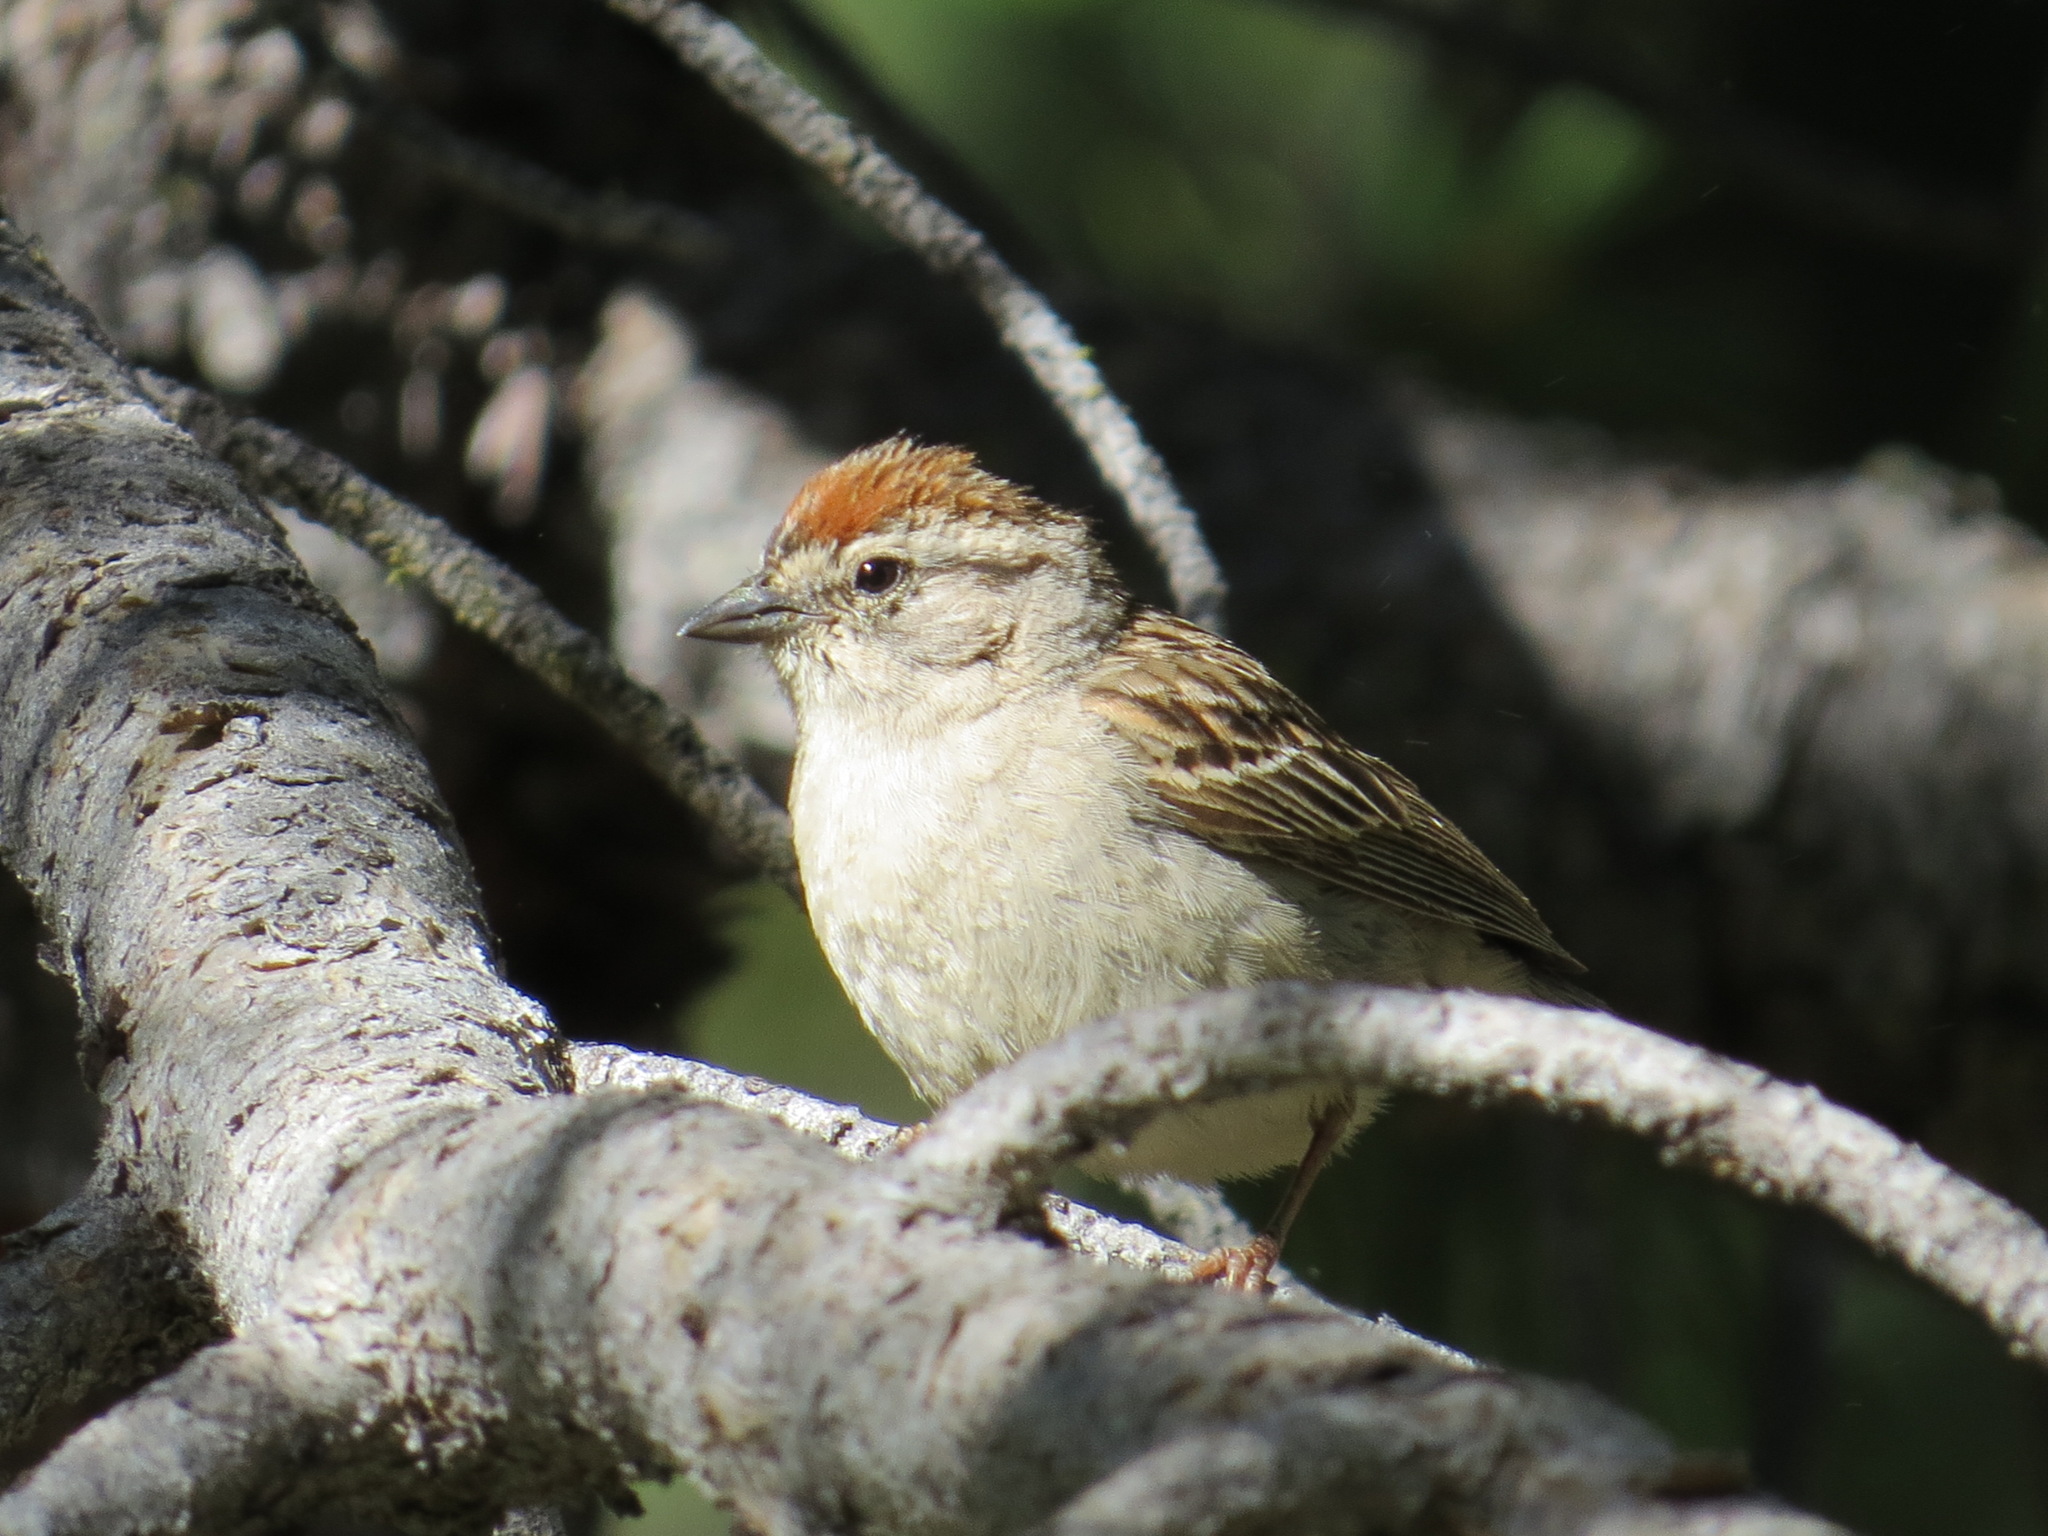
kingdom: Animalia
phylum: Chordata
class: Aves
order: Passeriformes
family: Passerellidae
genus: Spizella
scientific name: Spizella passerina
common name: Chipping sparrow
